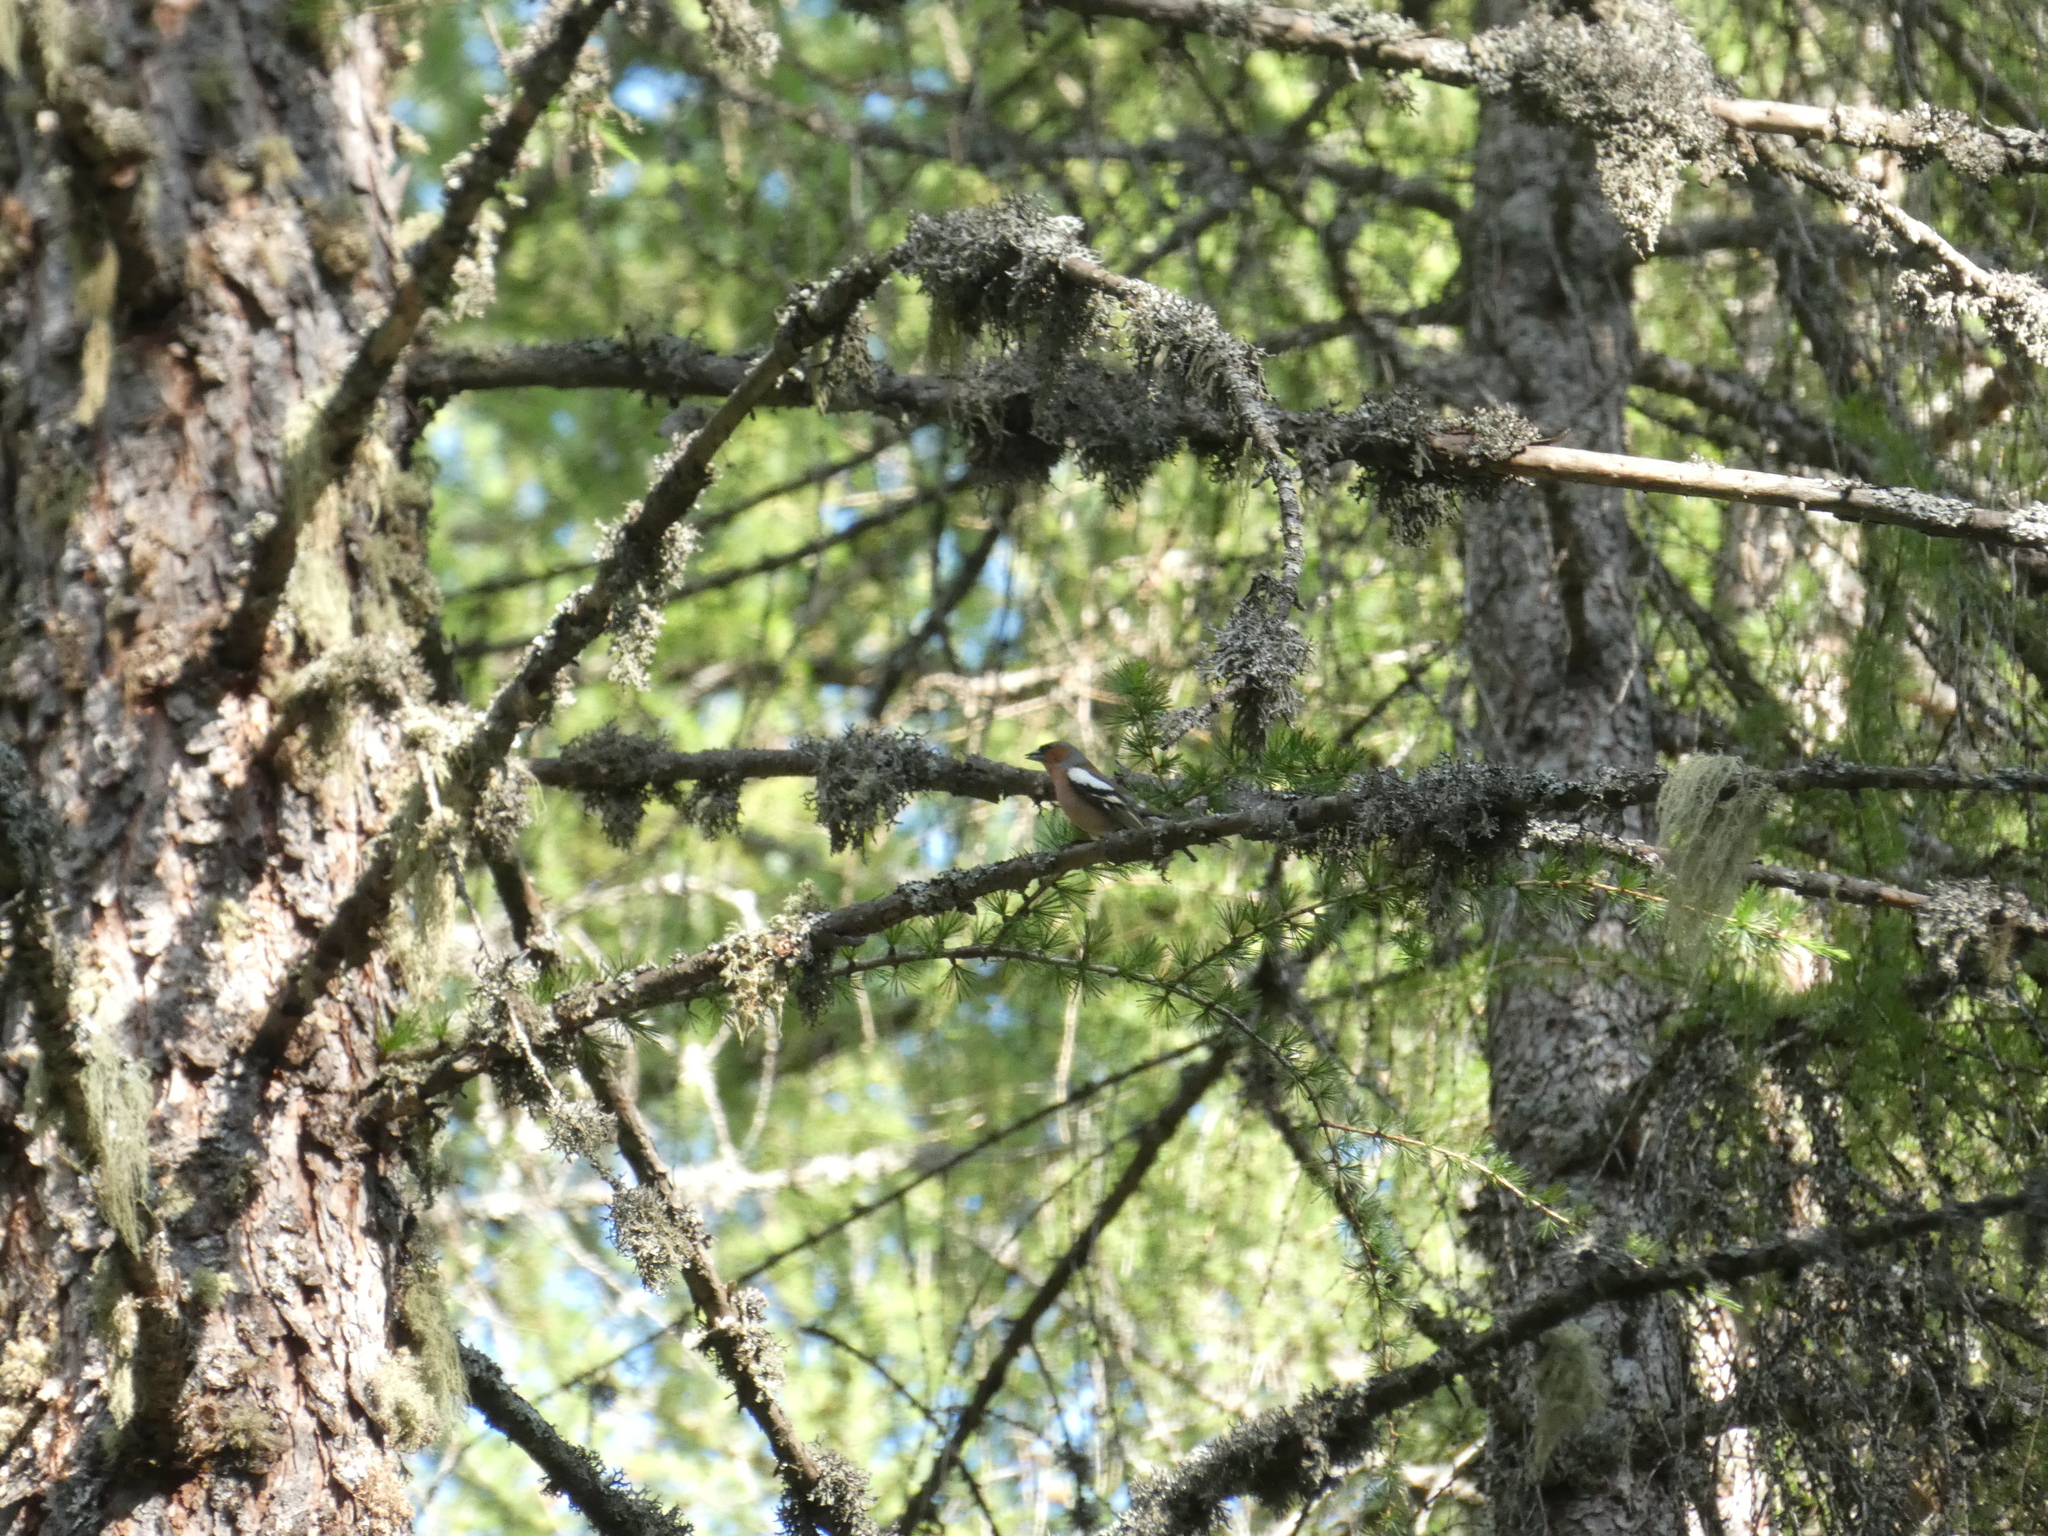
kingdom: Animalia
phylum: Chordata
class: Aves
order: Passeriformes
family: Fringillidae
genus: Fringilla
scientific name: Fringilla coelebs
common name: Common chaffinch
